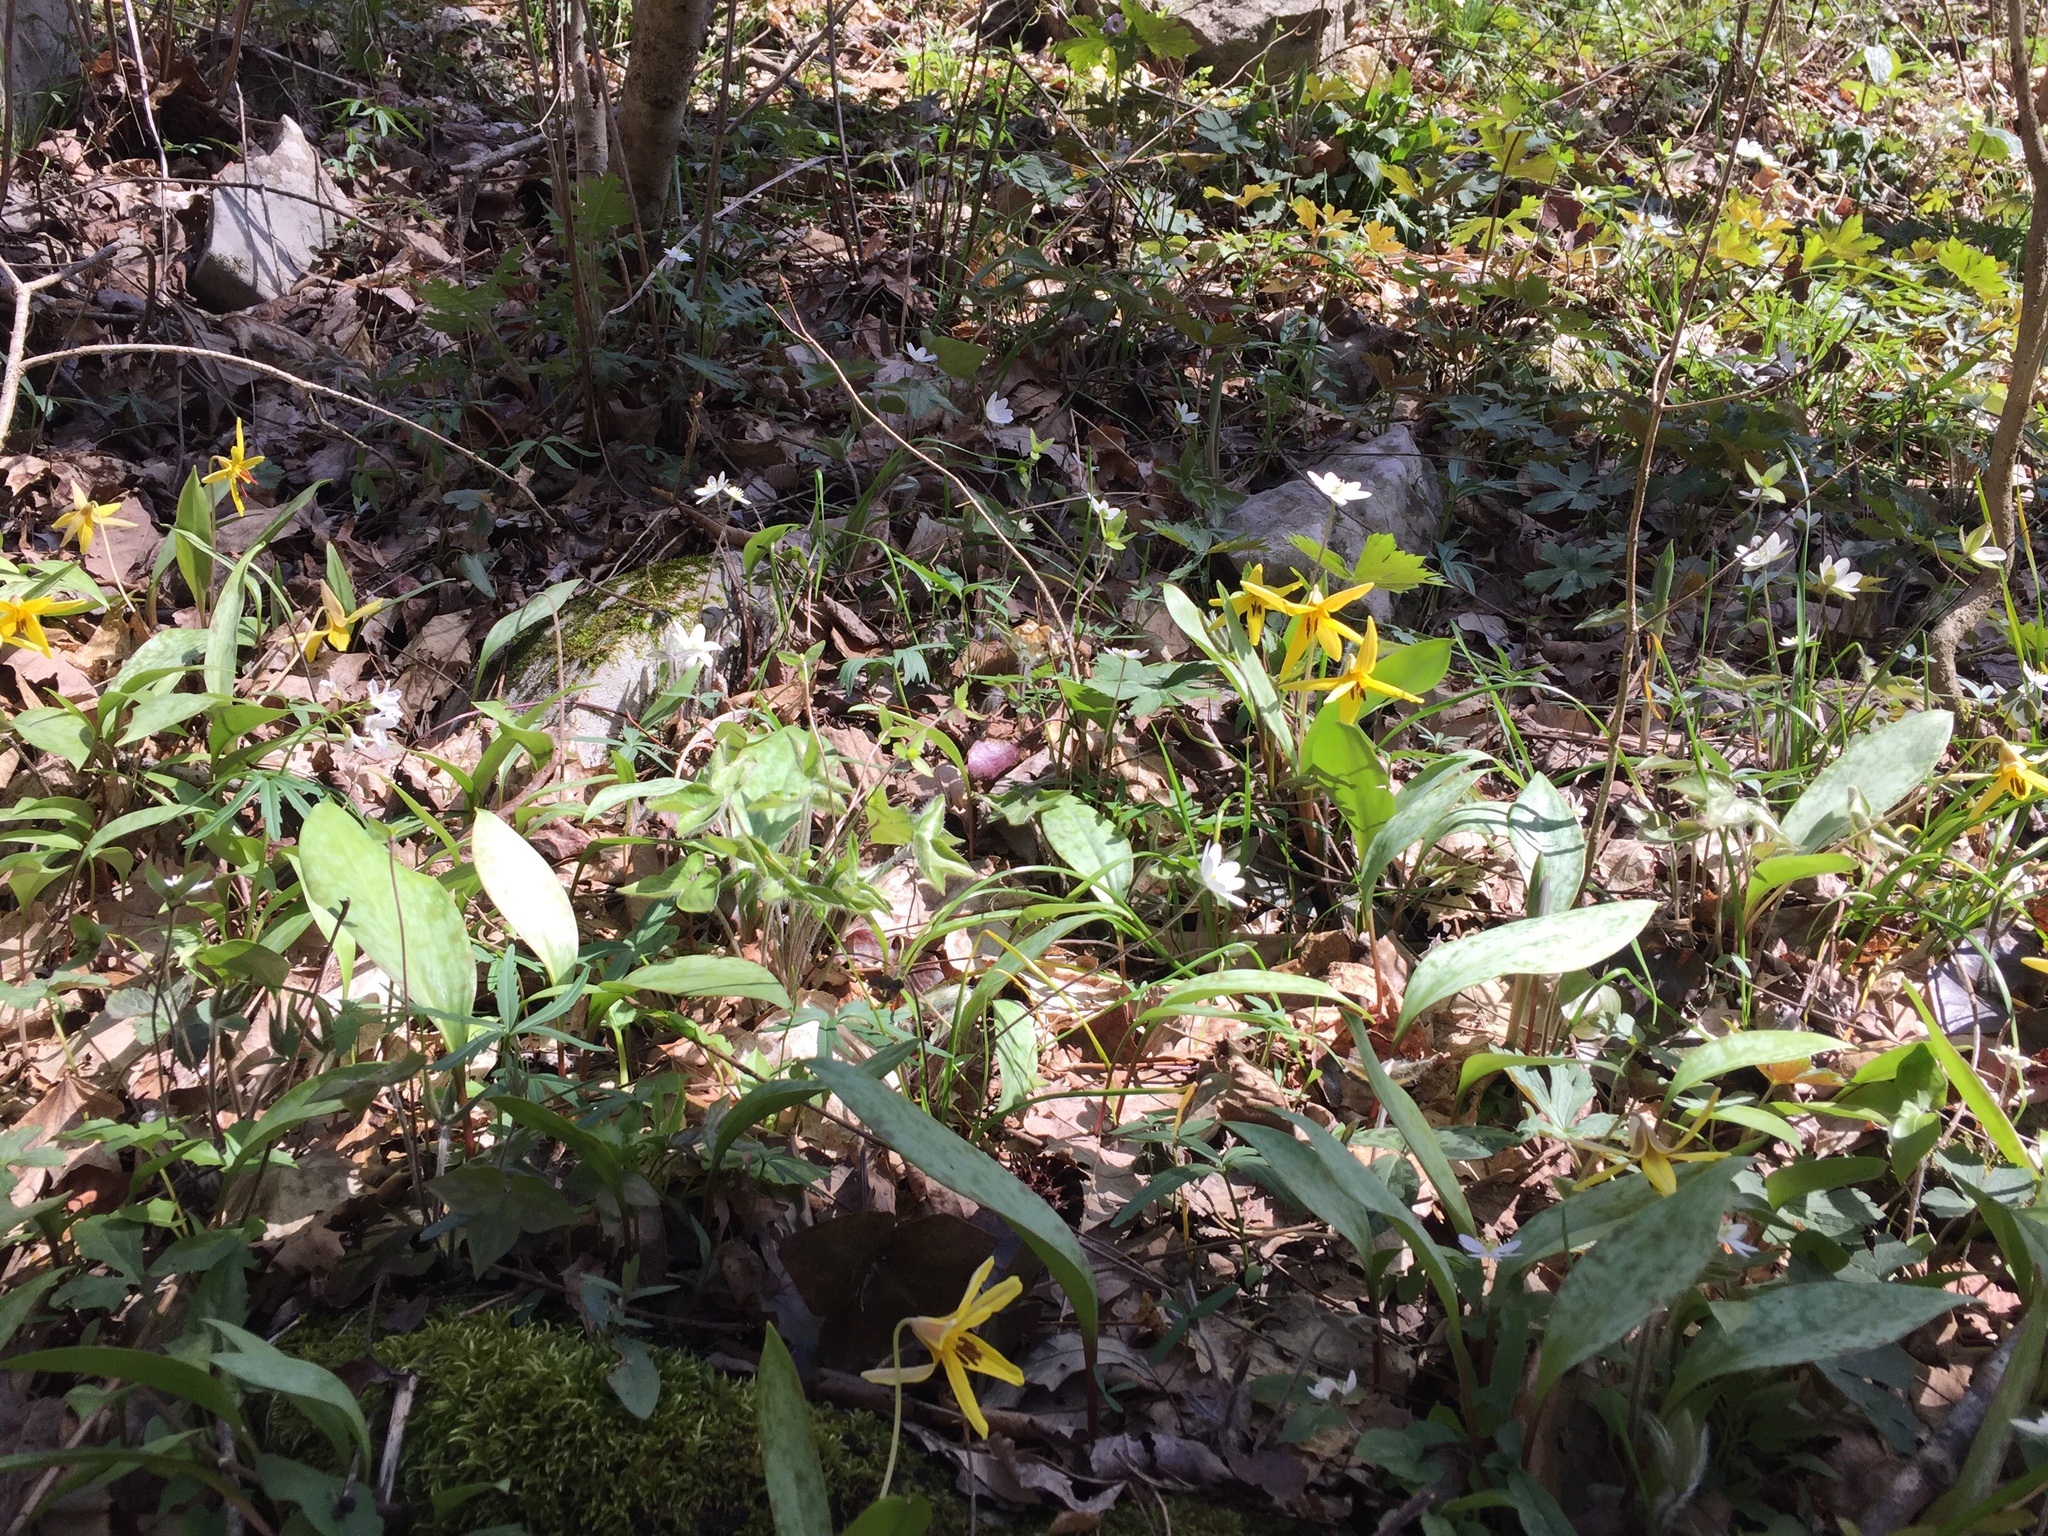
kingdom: Plantae
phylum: Tracheophyta
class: Liliopsida
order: Liliales
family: Liliaceae
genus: Erythronium
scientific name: Erythronium americanum
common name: Yellow adder's-tongue
